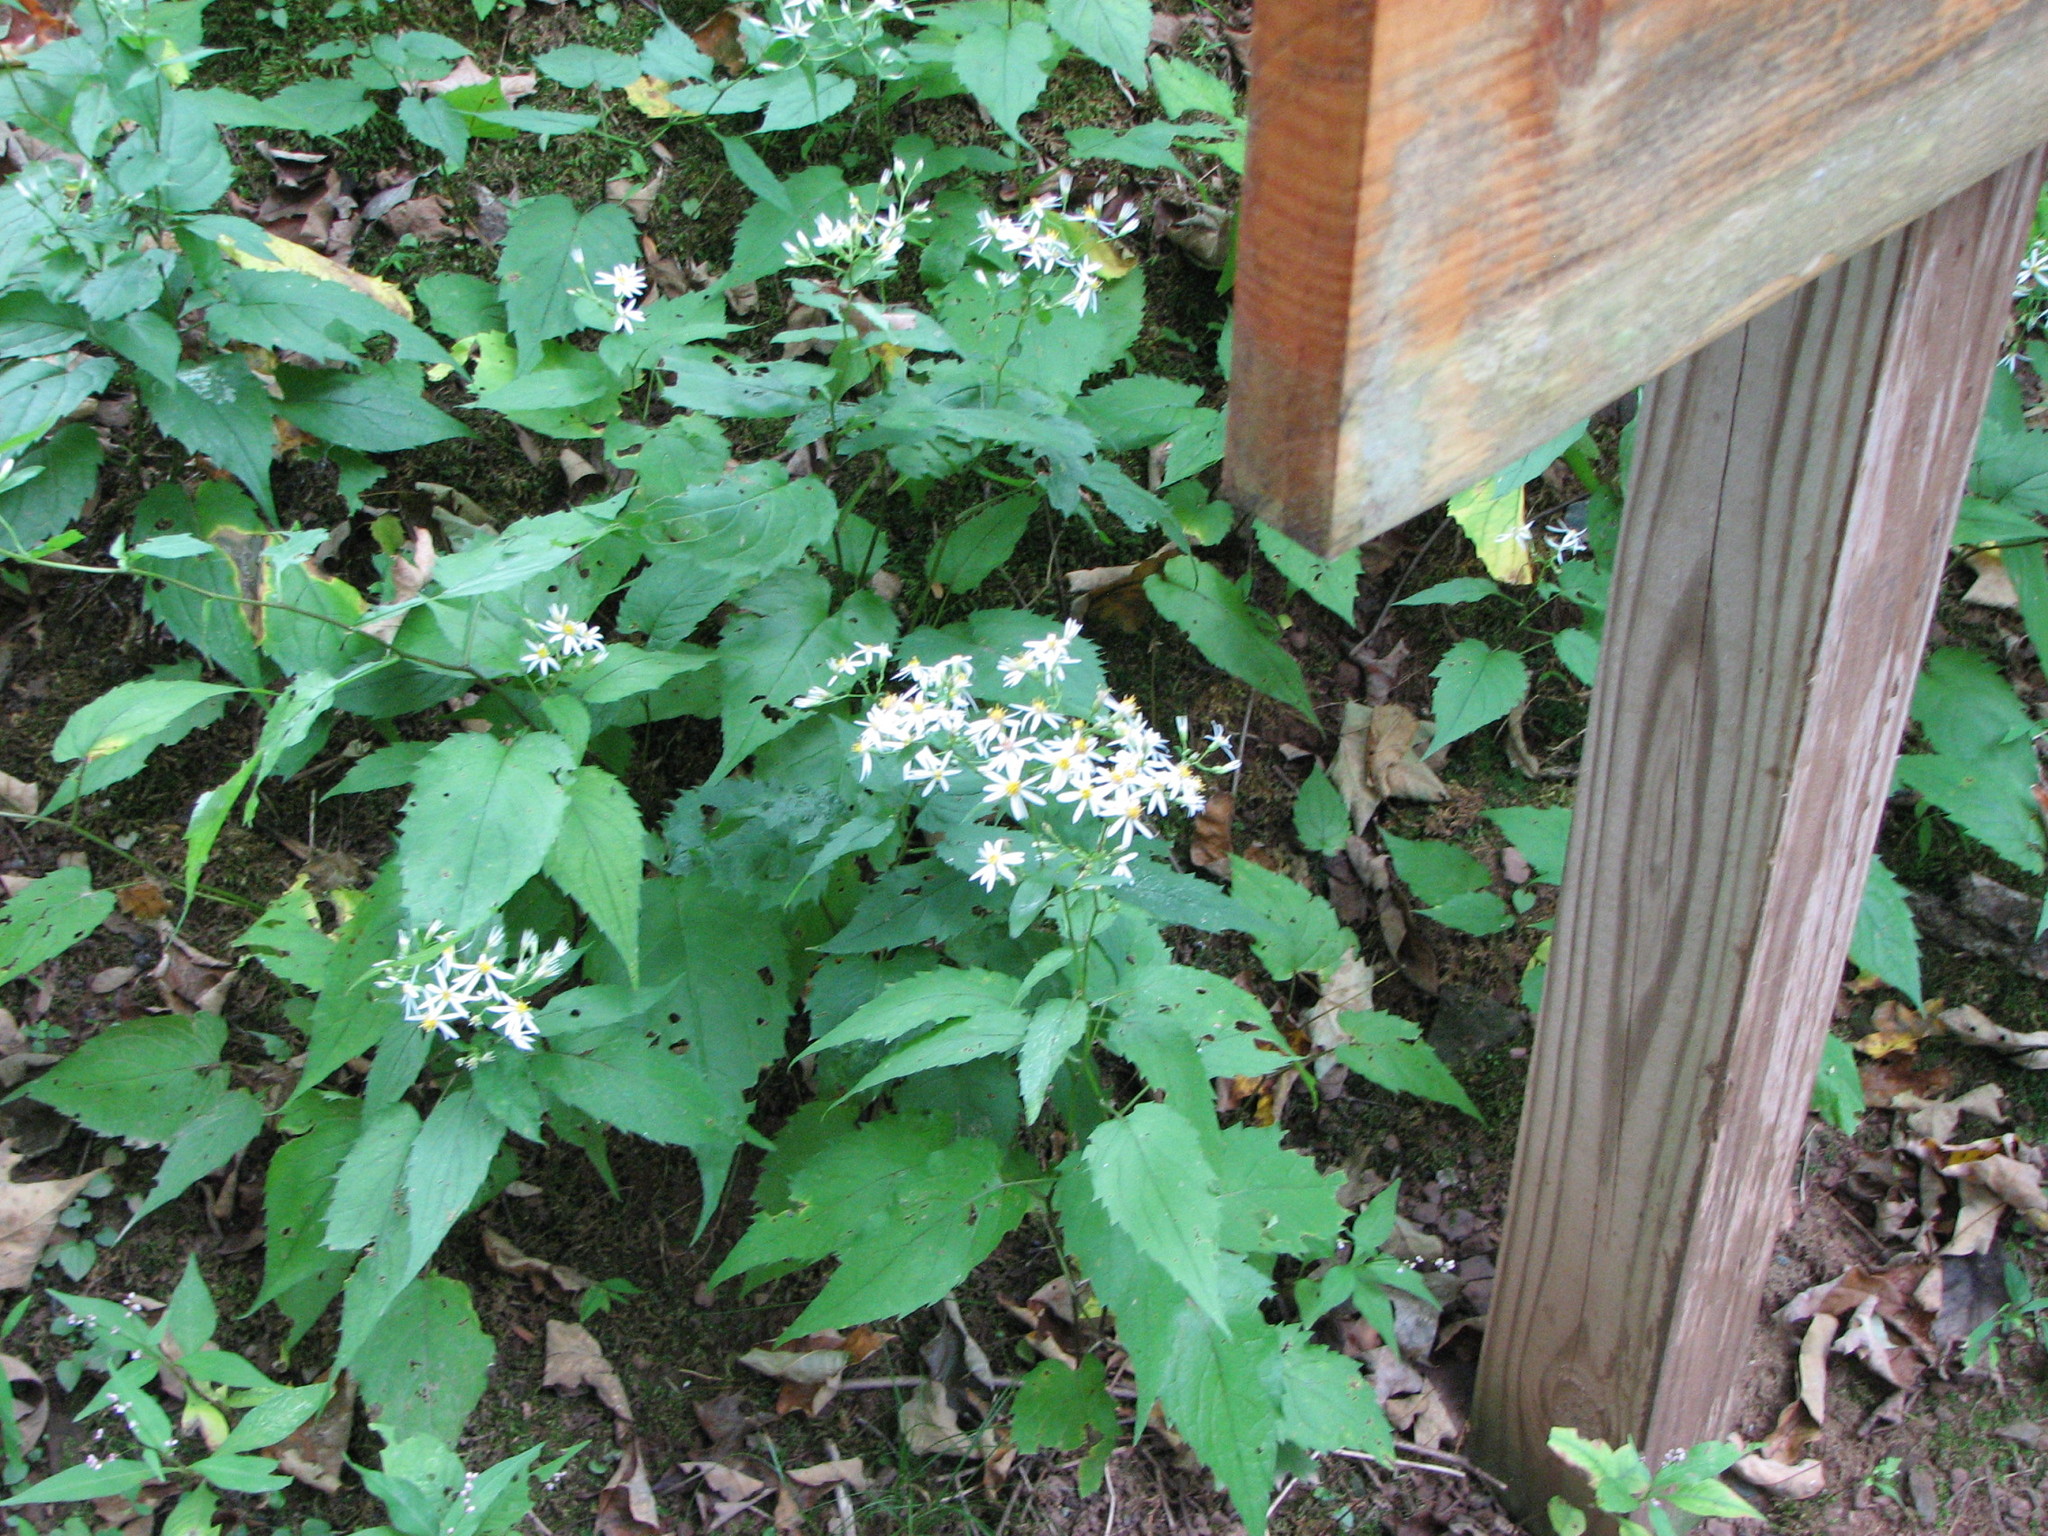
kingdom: Plantae
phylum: Tracheophyta
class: Magnoliopsida
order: Asterales
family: Asteraceae
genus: Eurybia
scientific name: Eurybia divaricata
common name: White wood aster
